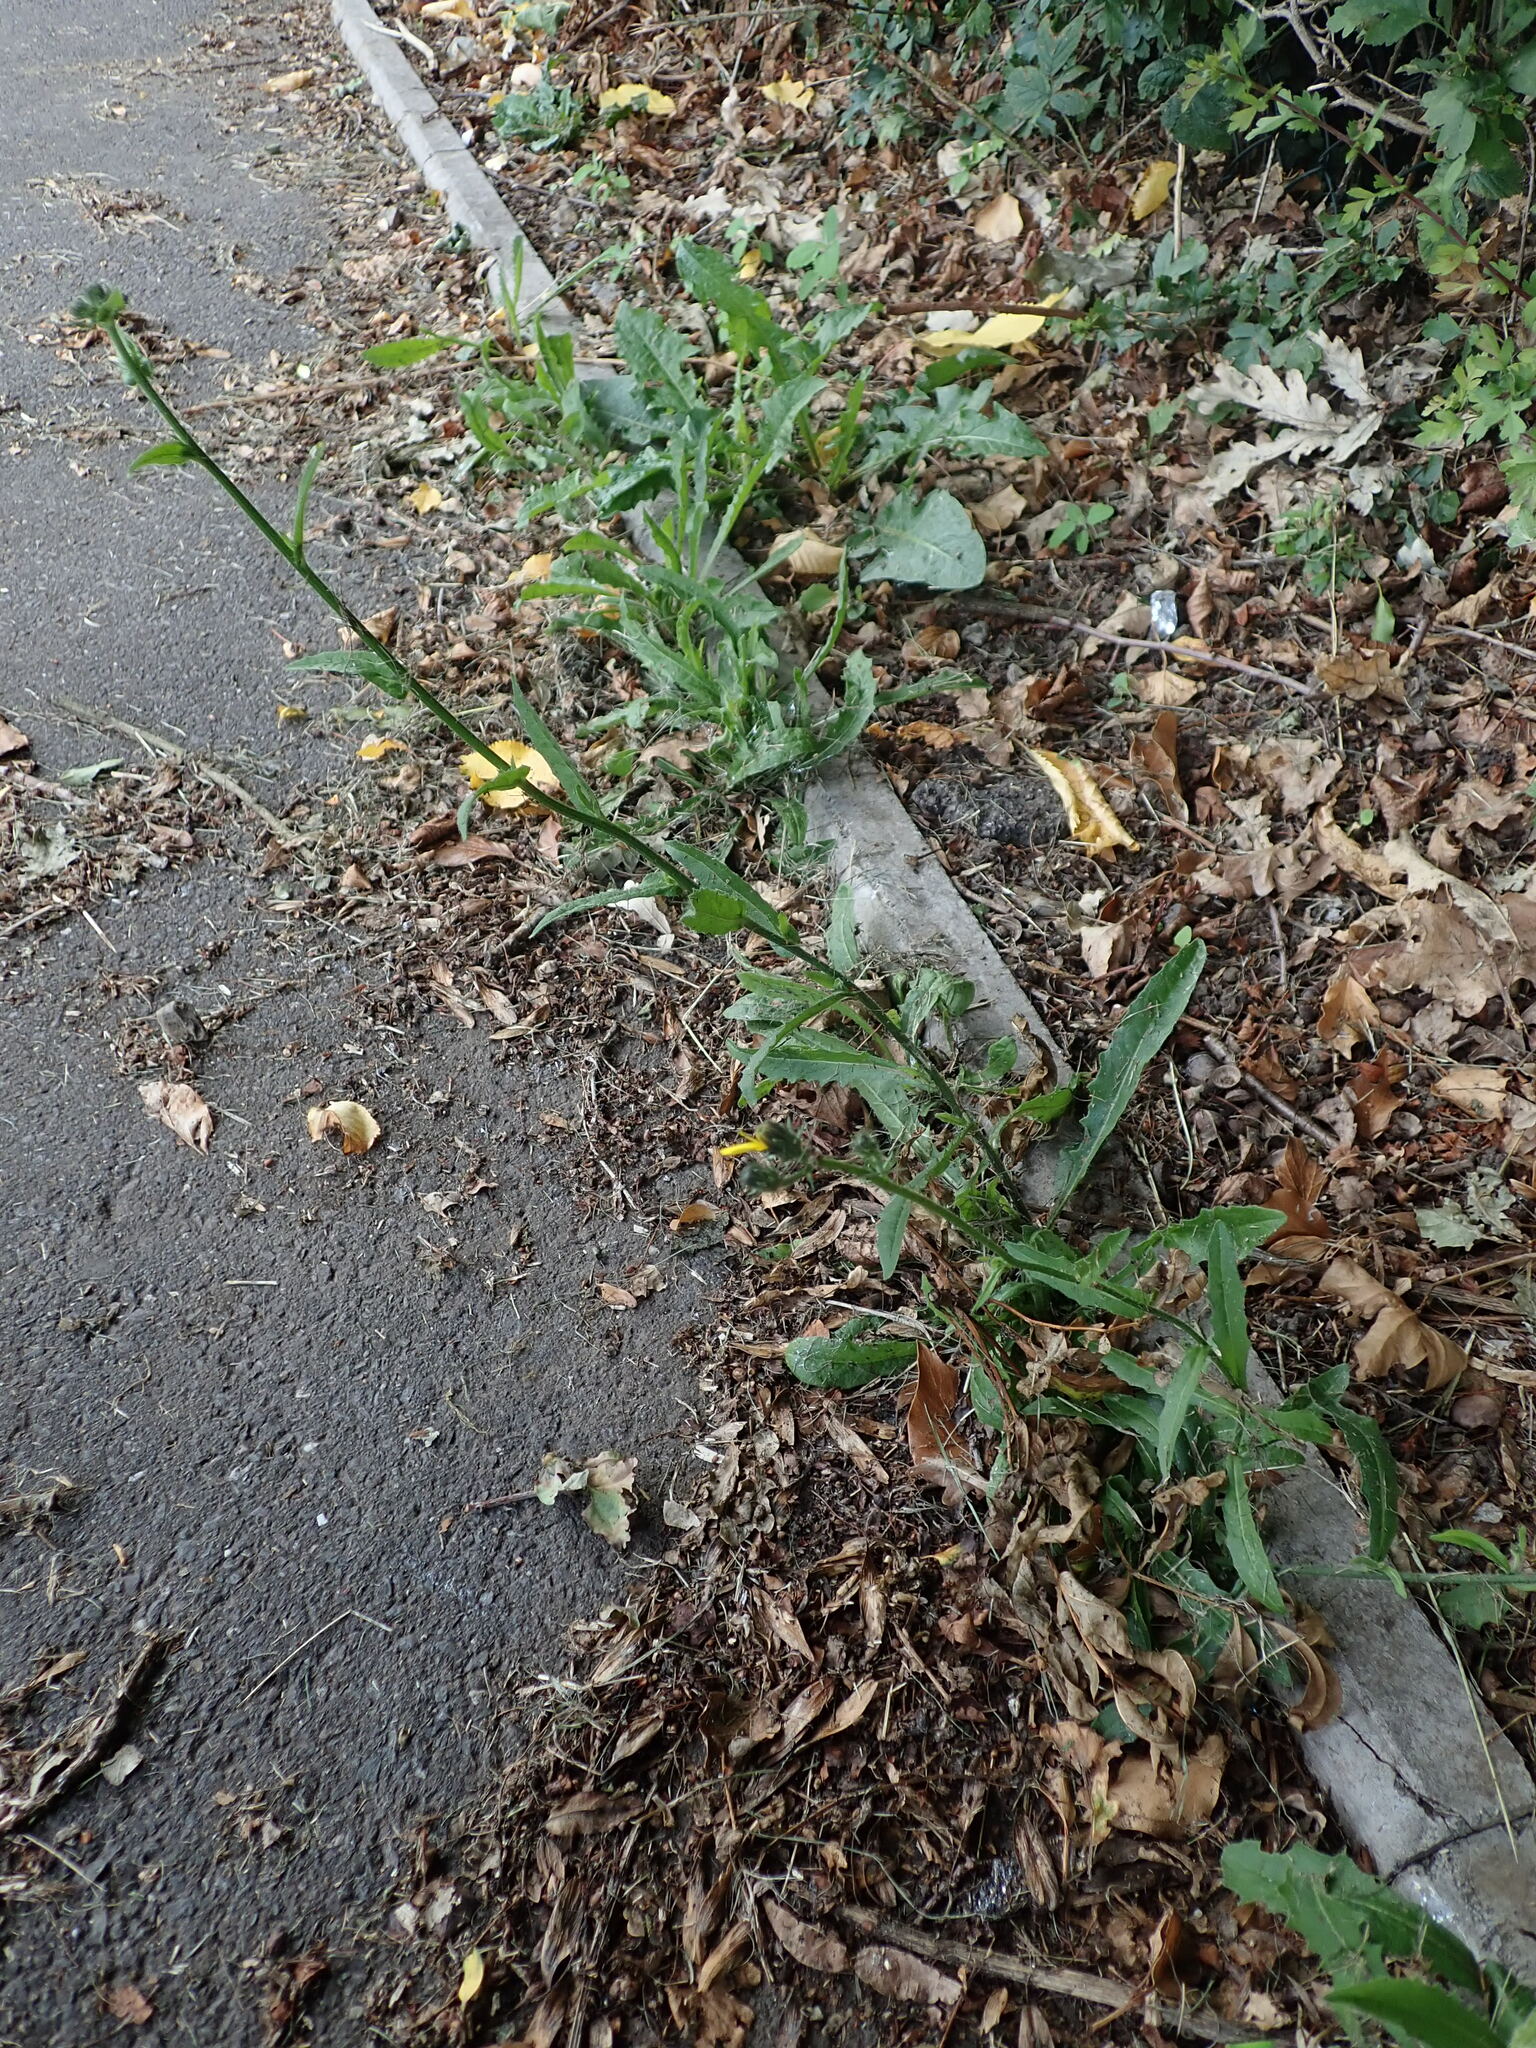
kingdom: Plantae
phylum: Tracheophyta
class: Magnoliopsida
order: Asterales
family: Asteraceae
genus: Picris
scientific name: Picris hieracioides
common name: Hawkweed oxtongue
